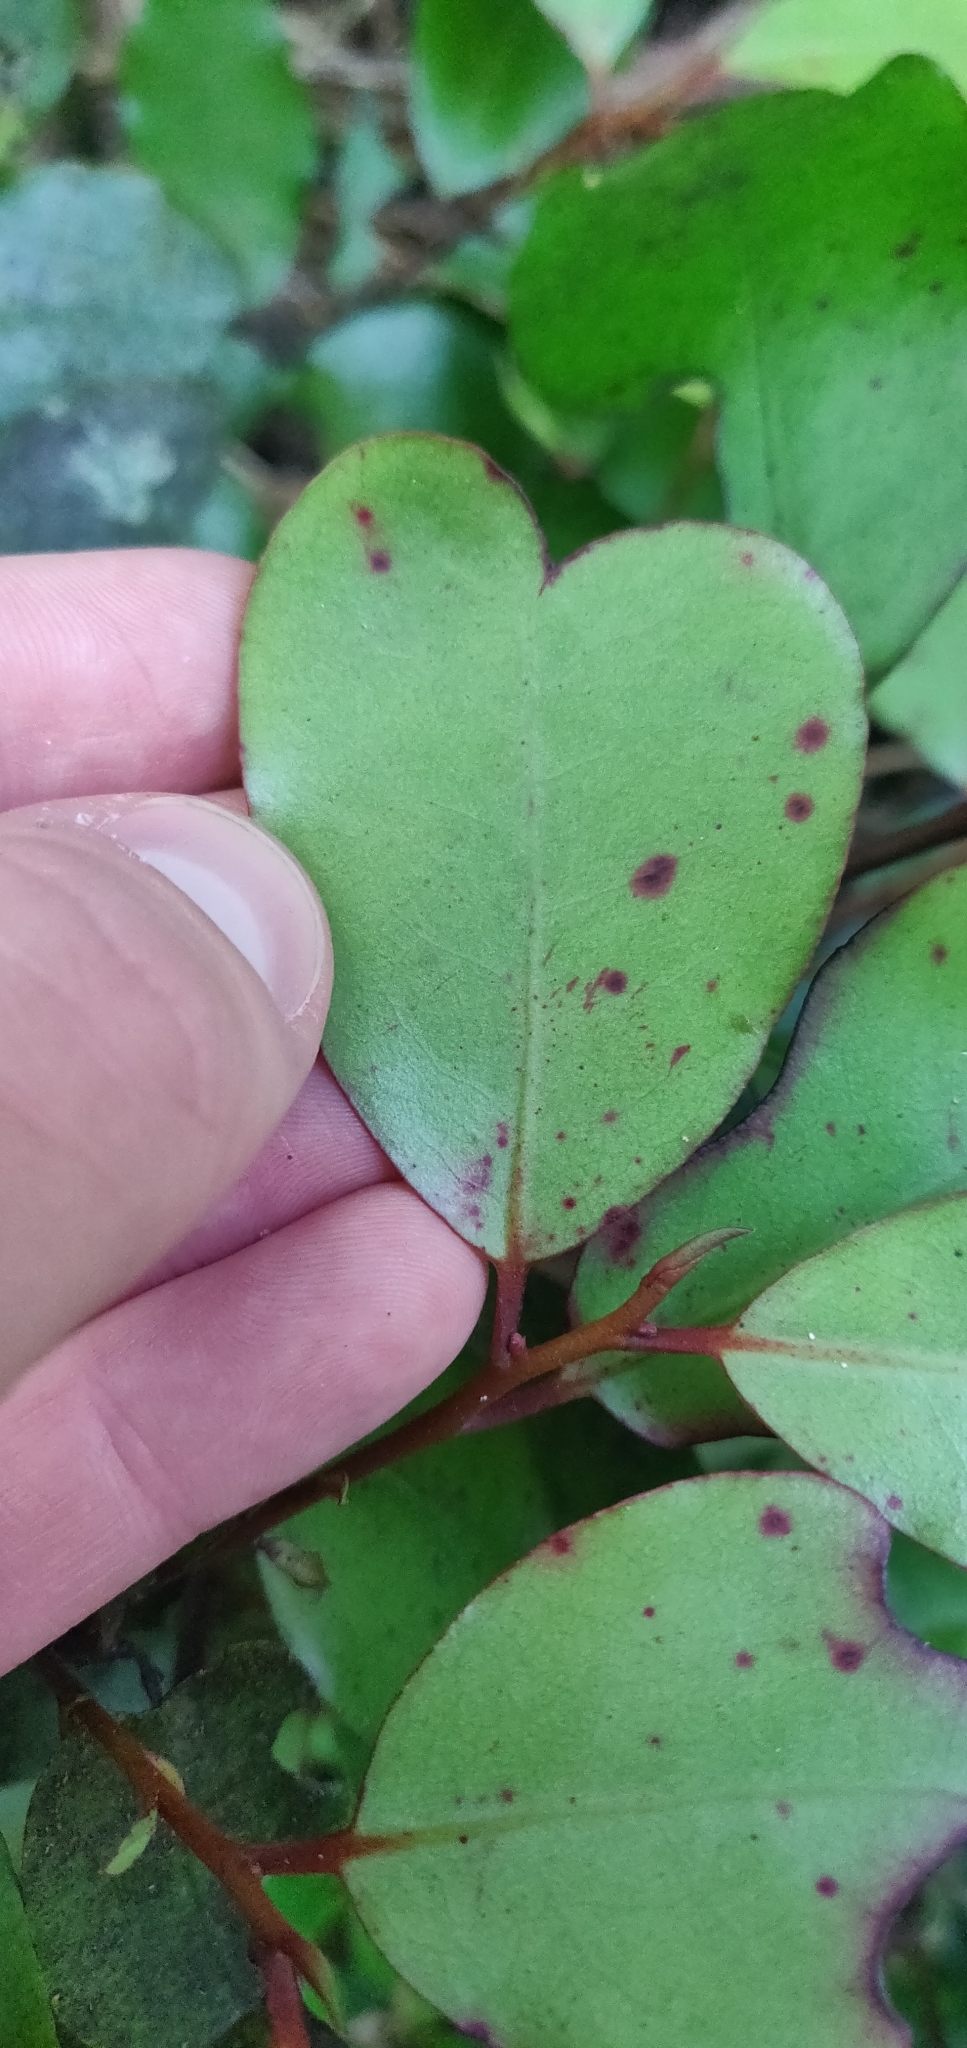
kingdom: Plantae
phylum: Tracheophyta
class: Magnoliopsida
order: Canellales
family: Winteraceae
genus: Pseudowintera
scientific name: Pseudowintera colorata
